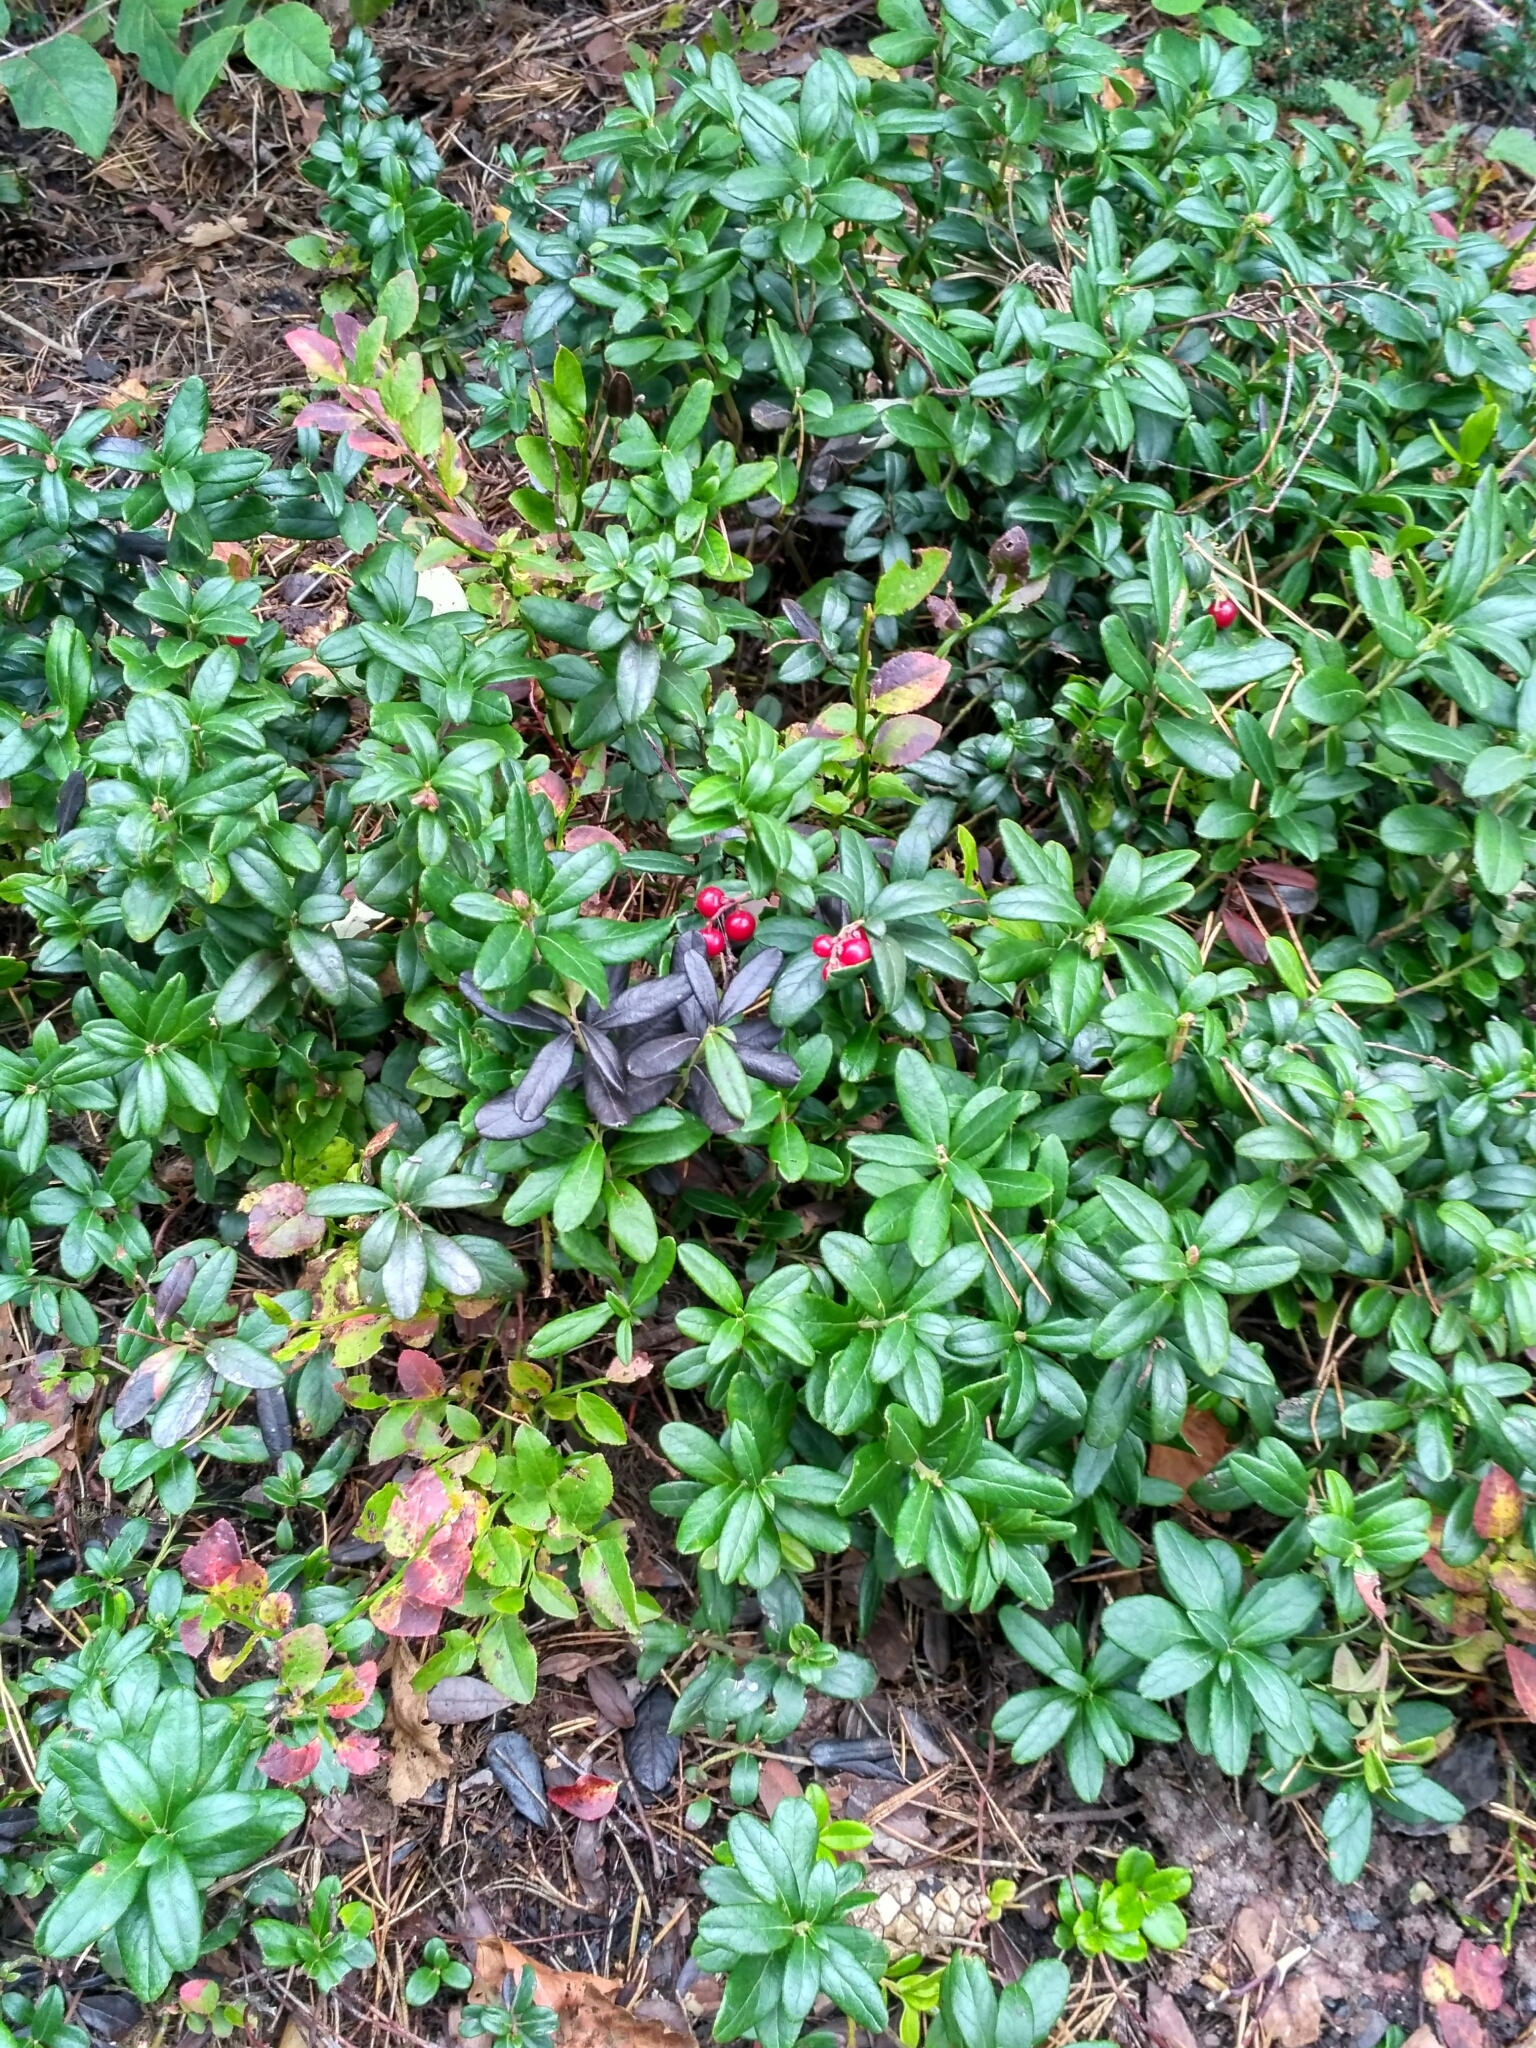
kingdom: Plantae
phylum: Tracheophyta
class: Magnoliopsida
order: Ericales
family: Ericaceae
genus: Vaccinium
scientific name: Vaccinium vitis-idaea
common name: Cowberry
